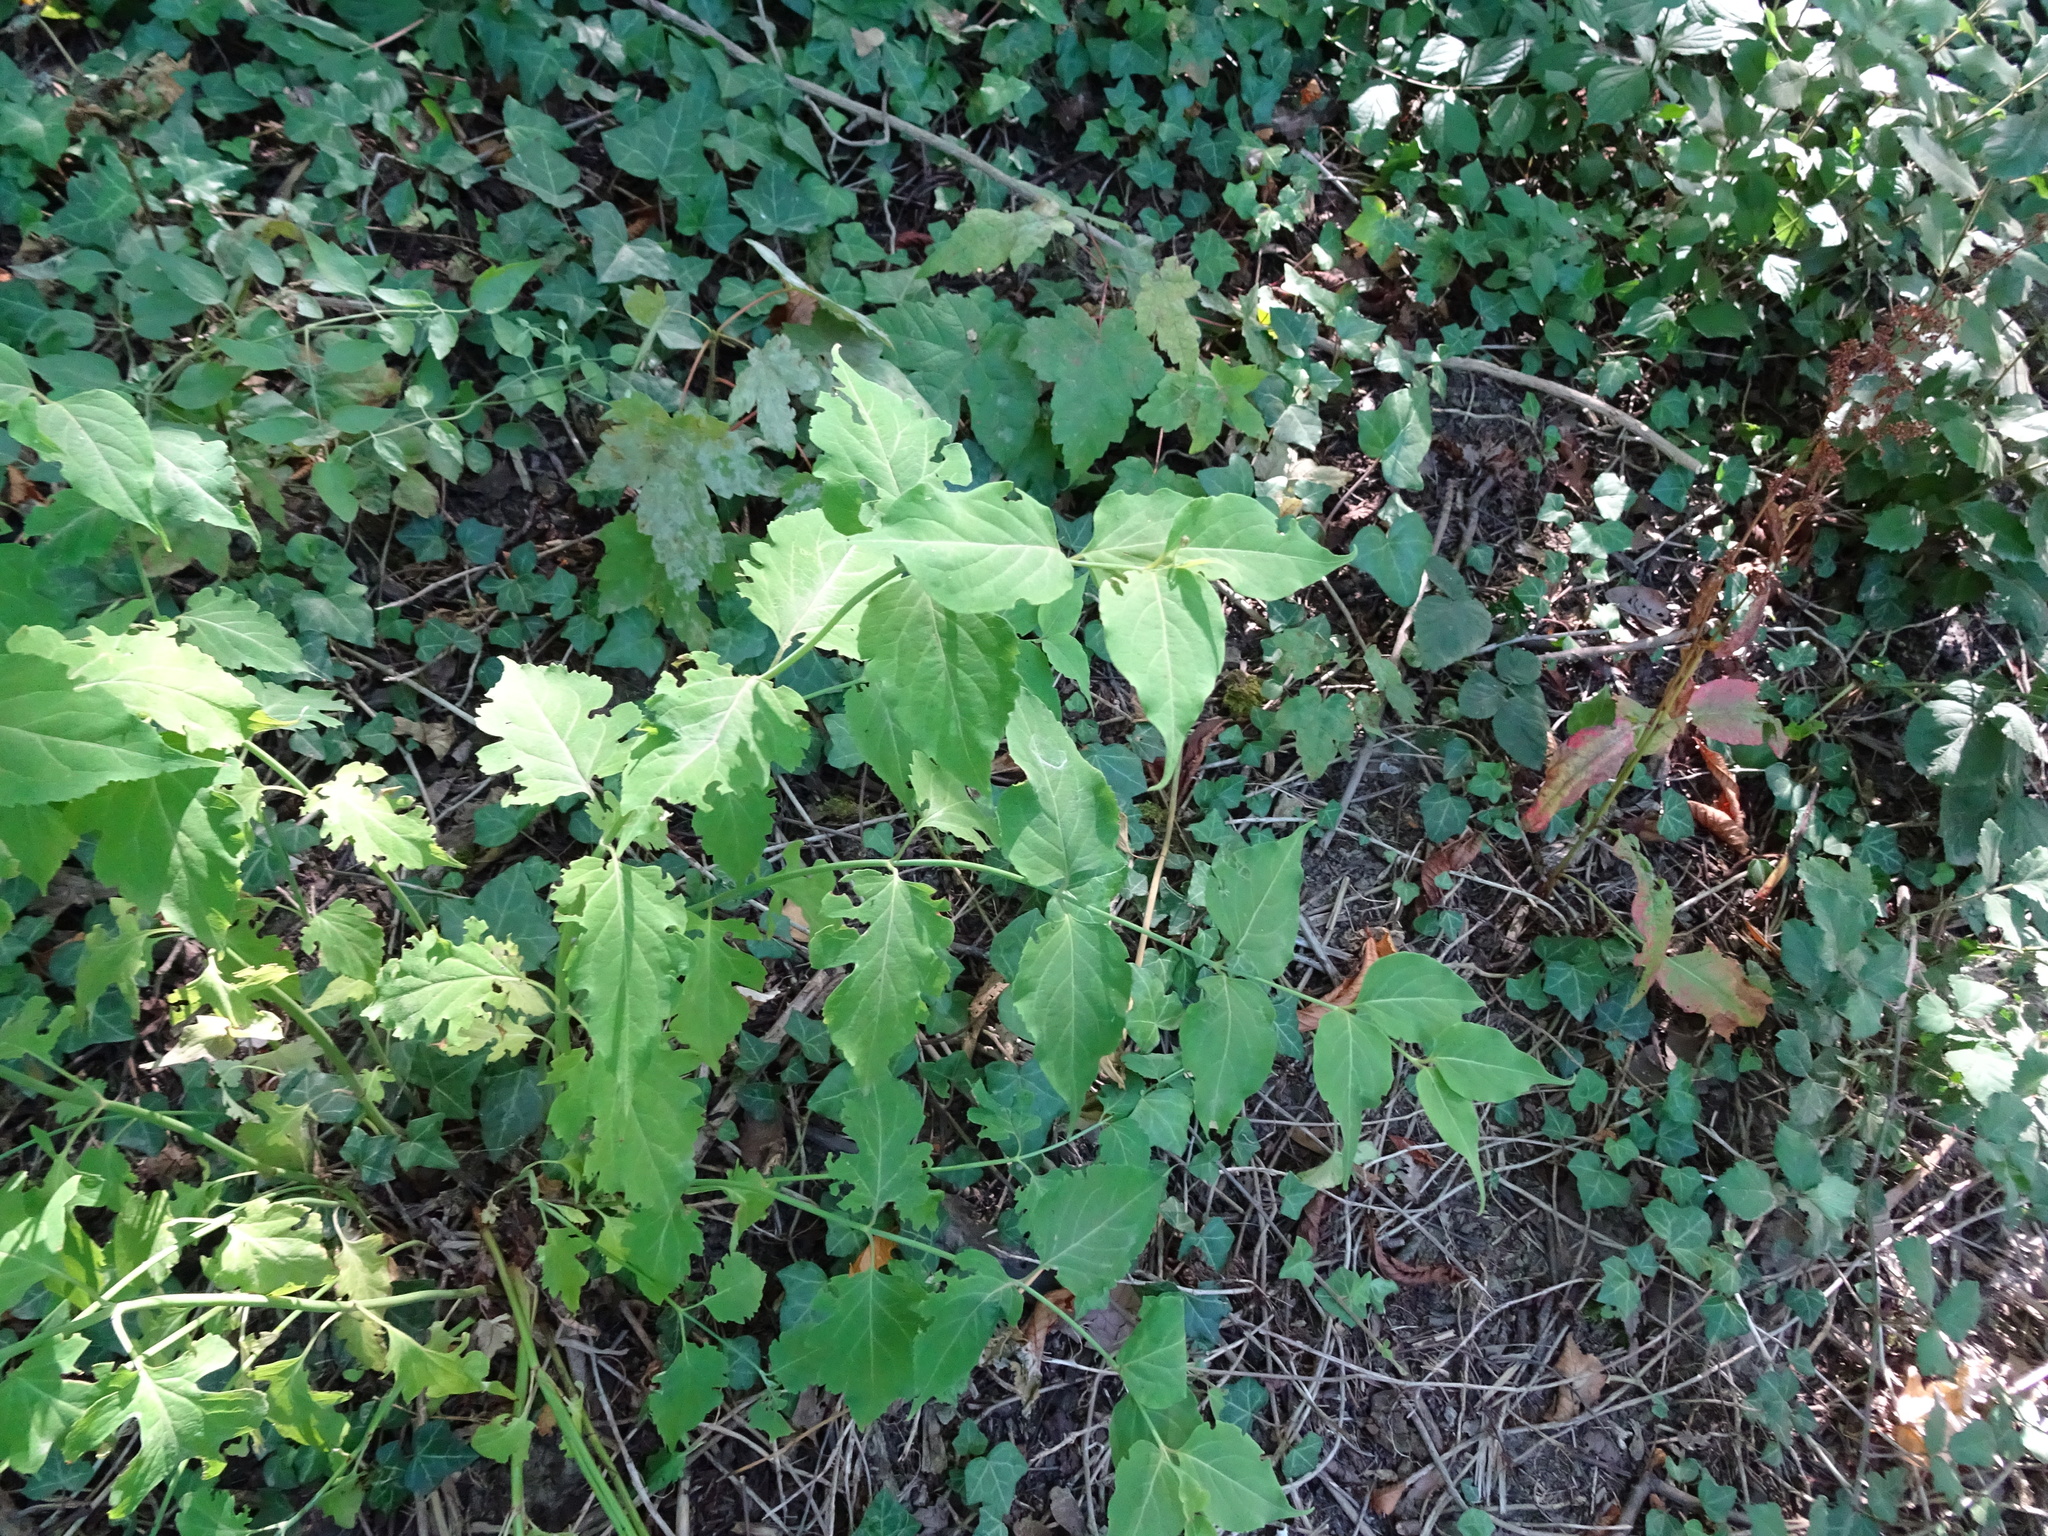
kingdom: Plantae
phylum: Tracheophyta
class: Magnoliopsida
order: Dipsacales
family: Caprifoliaceae
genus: Leycesteria
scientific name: Leycesteria formosa
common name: Himalayan honeysuckle
